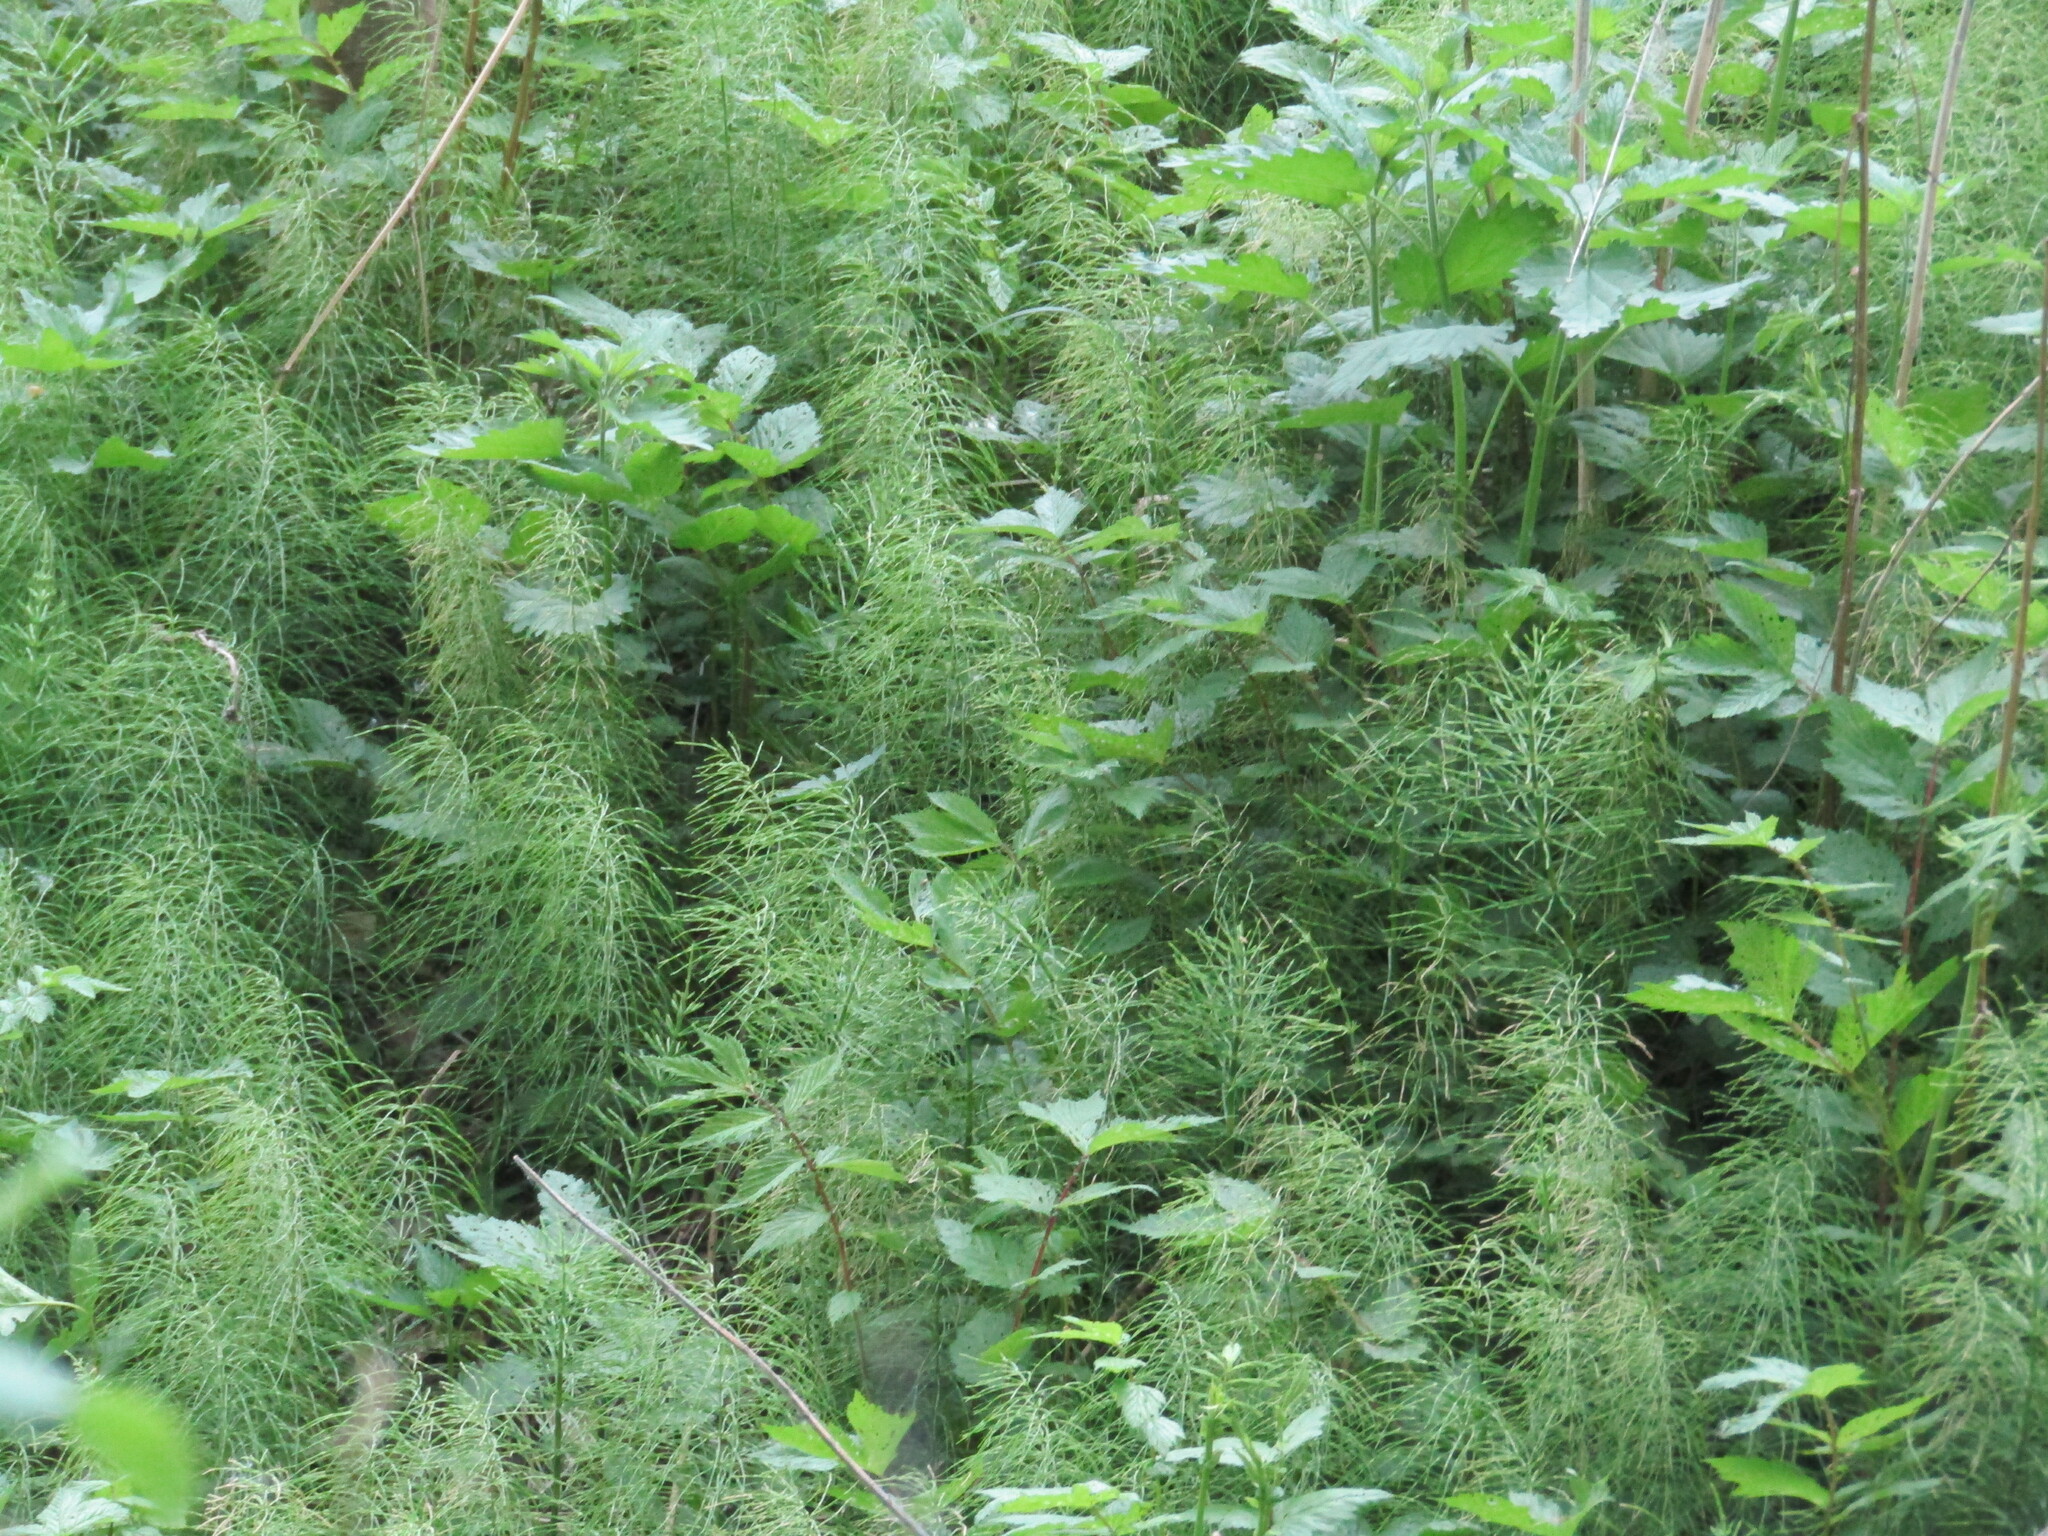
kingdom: Plantae
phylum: Tracheophyta
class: Polypodiopsida
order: Equisetales
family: Equisetaceae
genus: Equisetum
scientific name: Equisetum pratense
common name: Meadow horsetail
